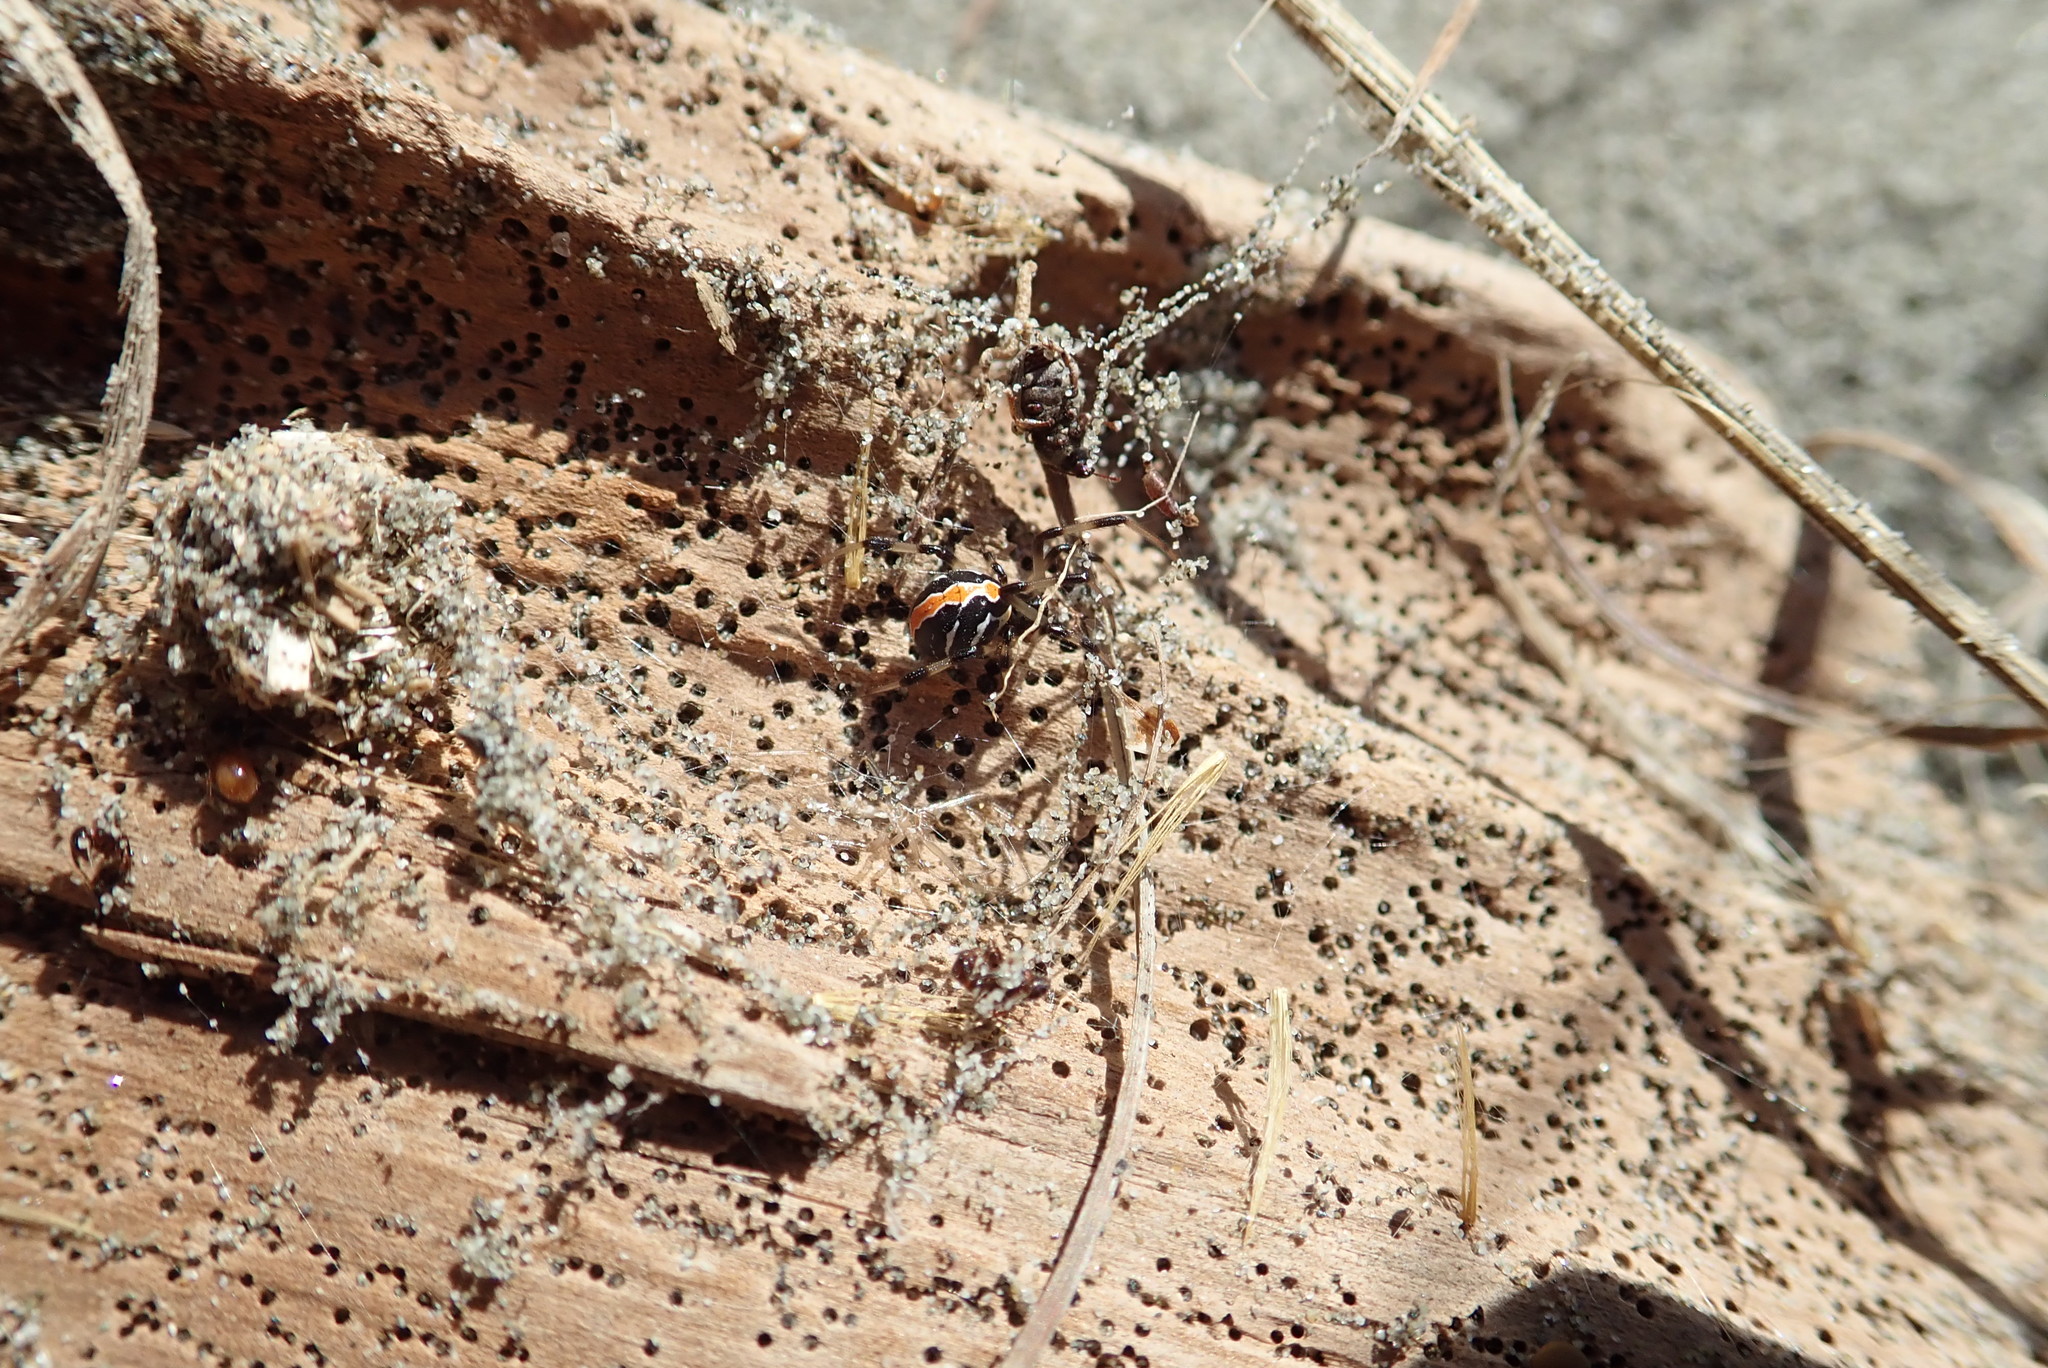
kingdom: Animalia
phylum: Arthropoda
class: Arachnida
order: Araneae
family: Theridiidae
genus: Latrodectus
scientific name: Latrodectus katipo
